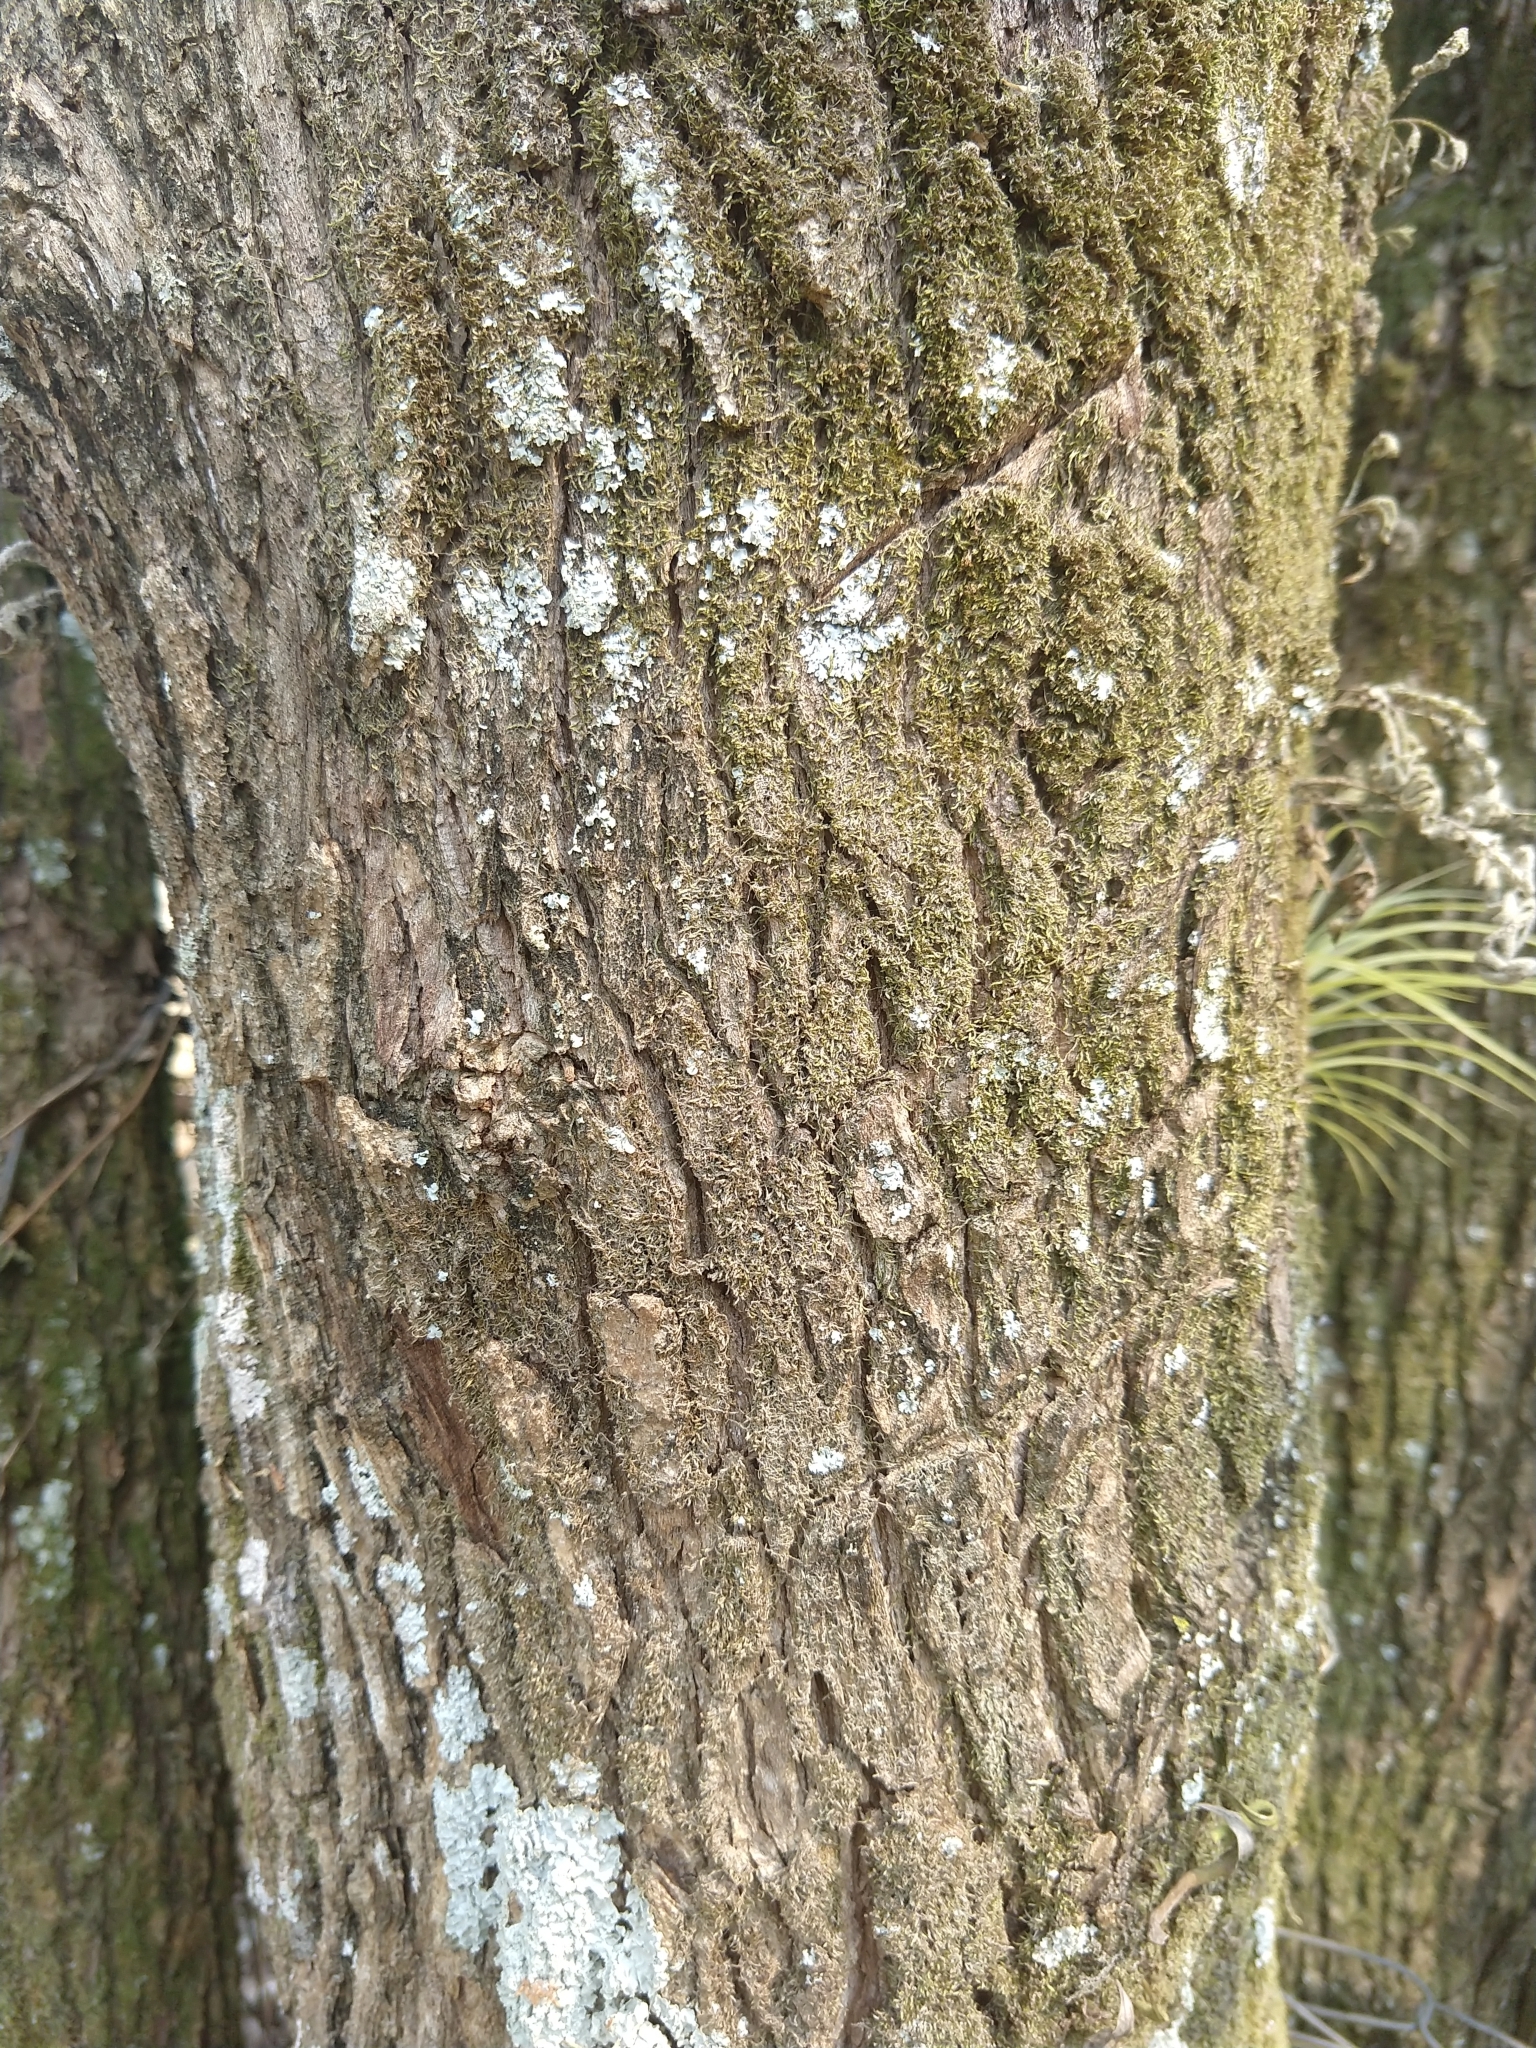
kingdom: Plantae
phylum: Tracheophyta
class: Magnoliopsida
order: Asterales
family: Asteraceae
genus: Vernonanthura
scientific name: Vernonanthura patens
